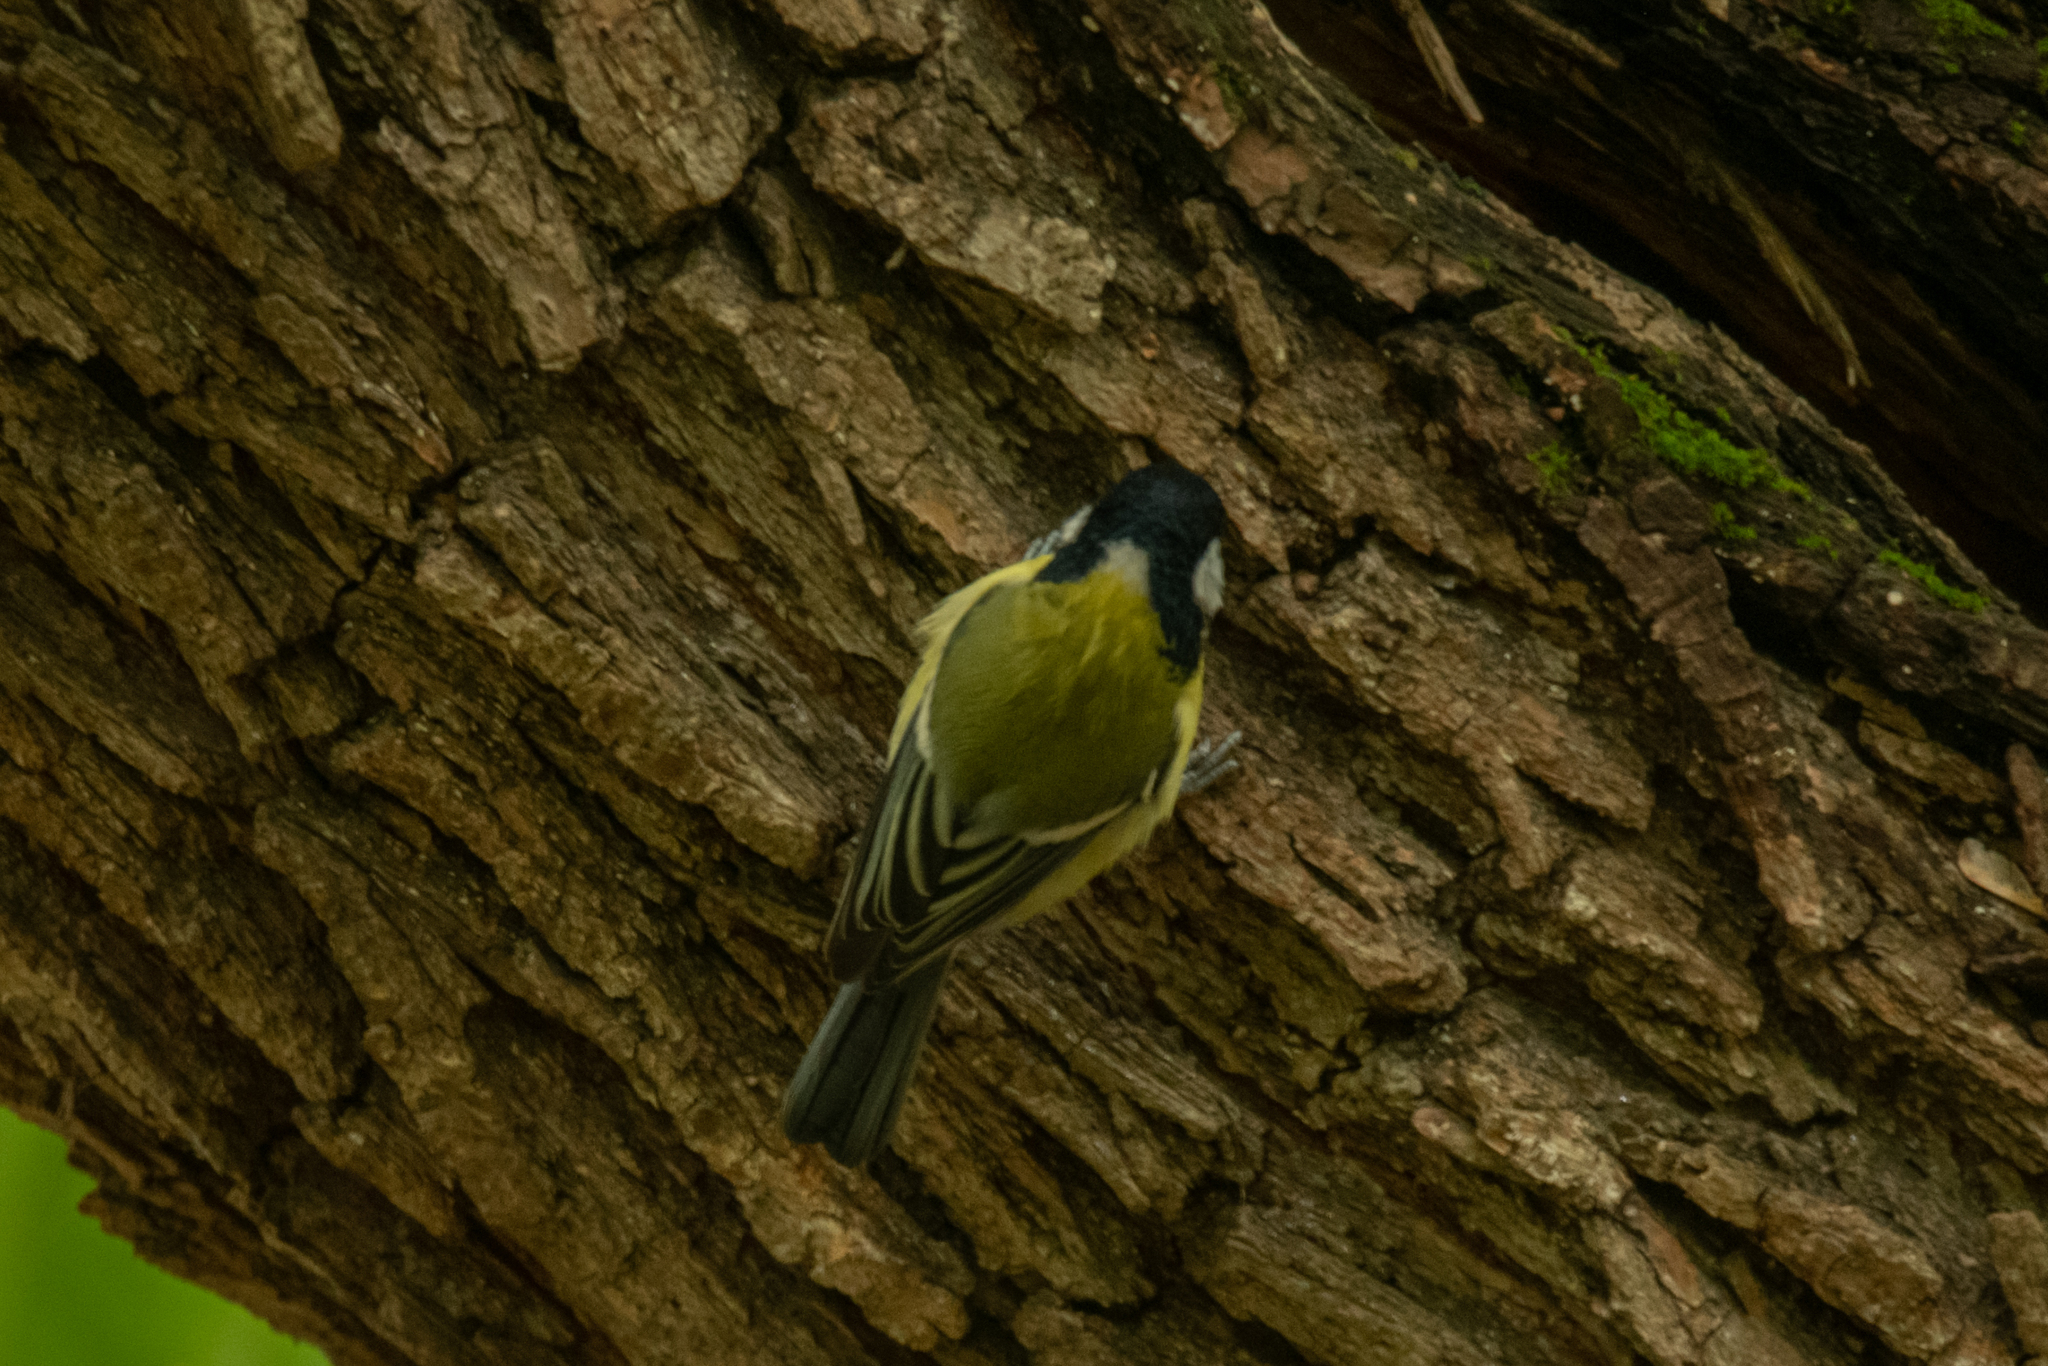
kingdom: Animalia
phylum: Chordata
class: Aves
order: Passeriformes
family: Paridae
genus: Parus
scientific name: Parus major
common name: Great tit
